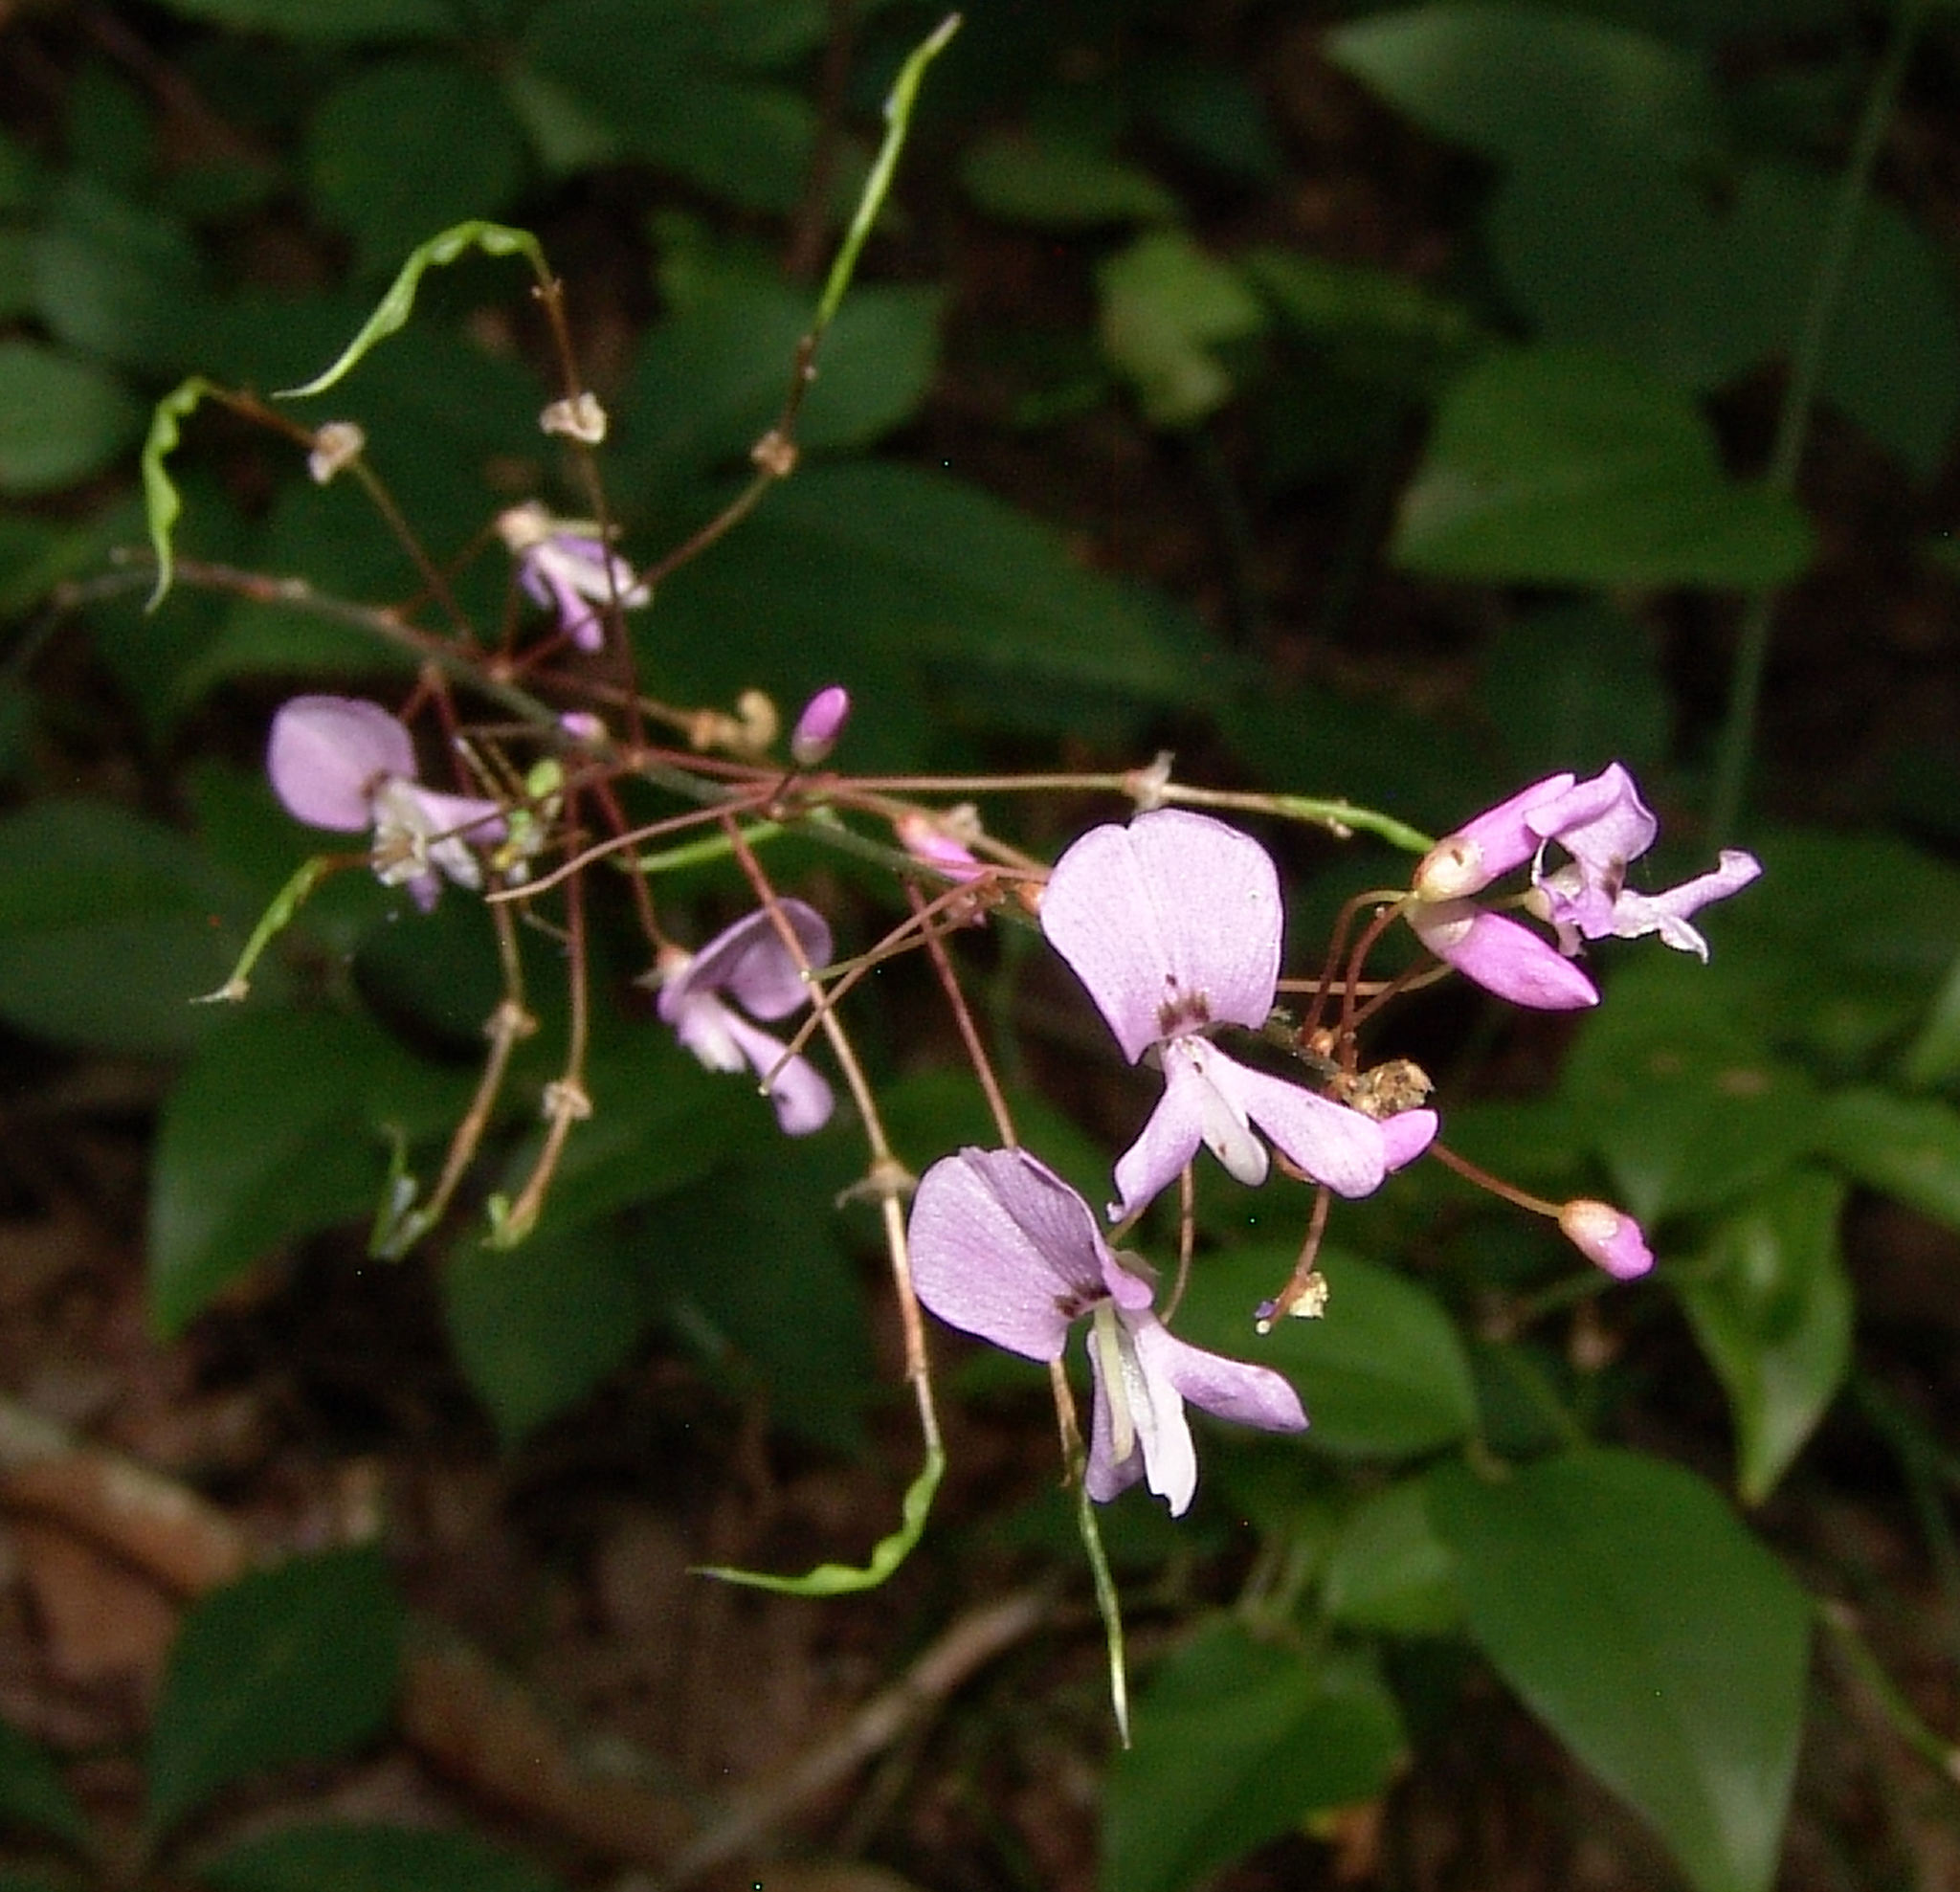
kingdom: Plantae
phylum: Tracheophyta
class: Magnoliopsida
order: Fabales
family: Fabaceae
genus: Hylodesmum
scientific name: Hylodesmum nudiflorum
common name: Bare-stemmed tick-trefoil
